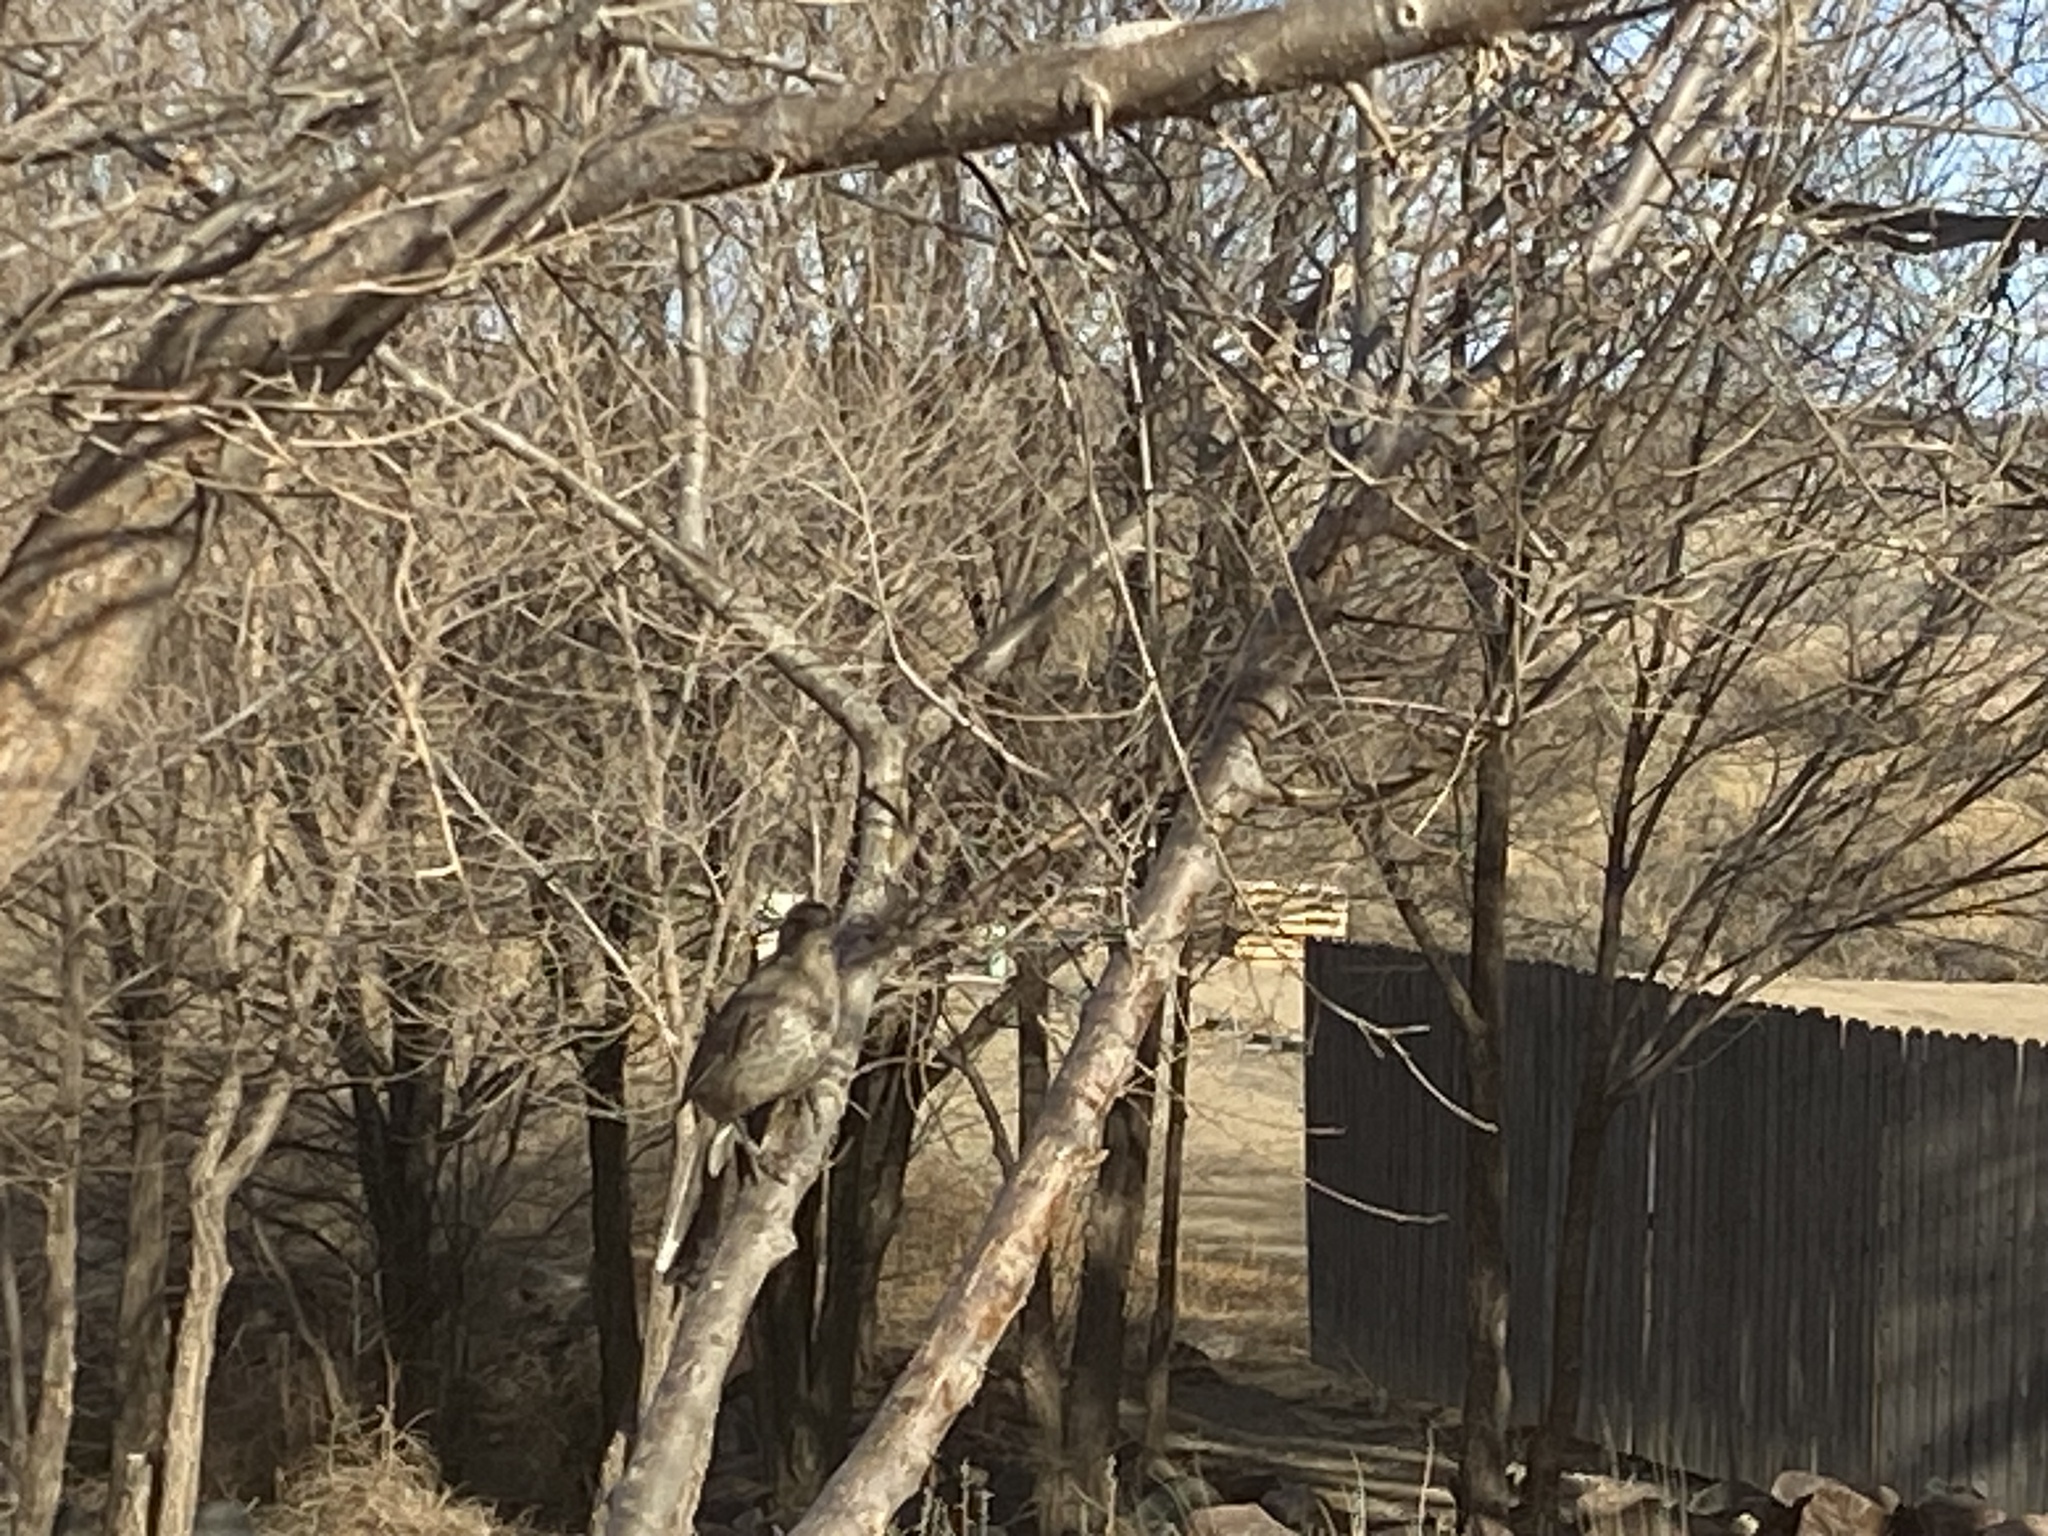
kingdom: Animalia
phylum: Chordata
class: Aves
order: Passeriformes
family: Mimidae
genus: Toxostoma
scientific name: Toxostoma curvirostre
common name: Curve-billed thrasher
